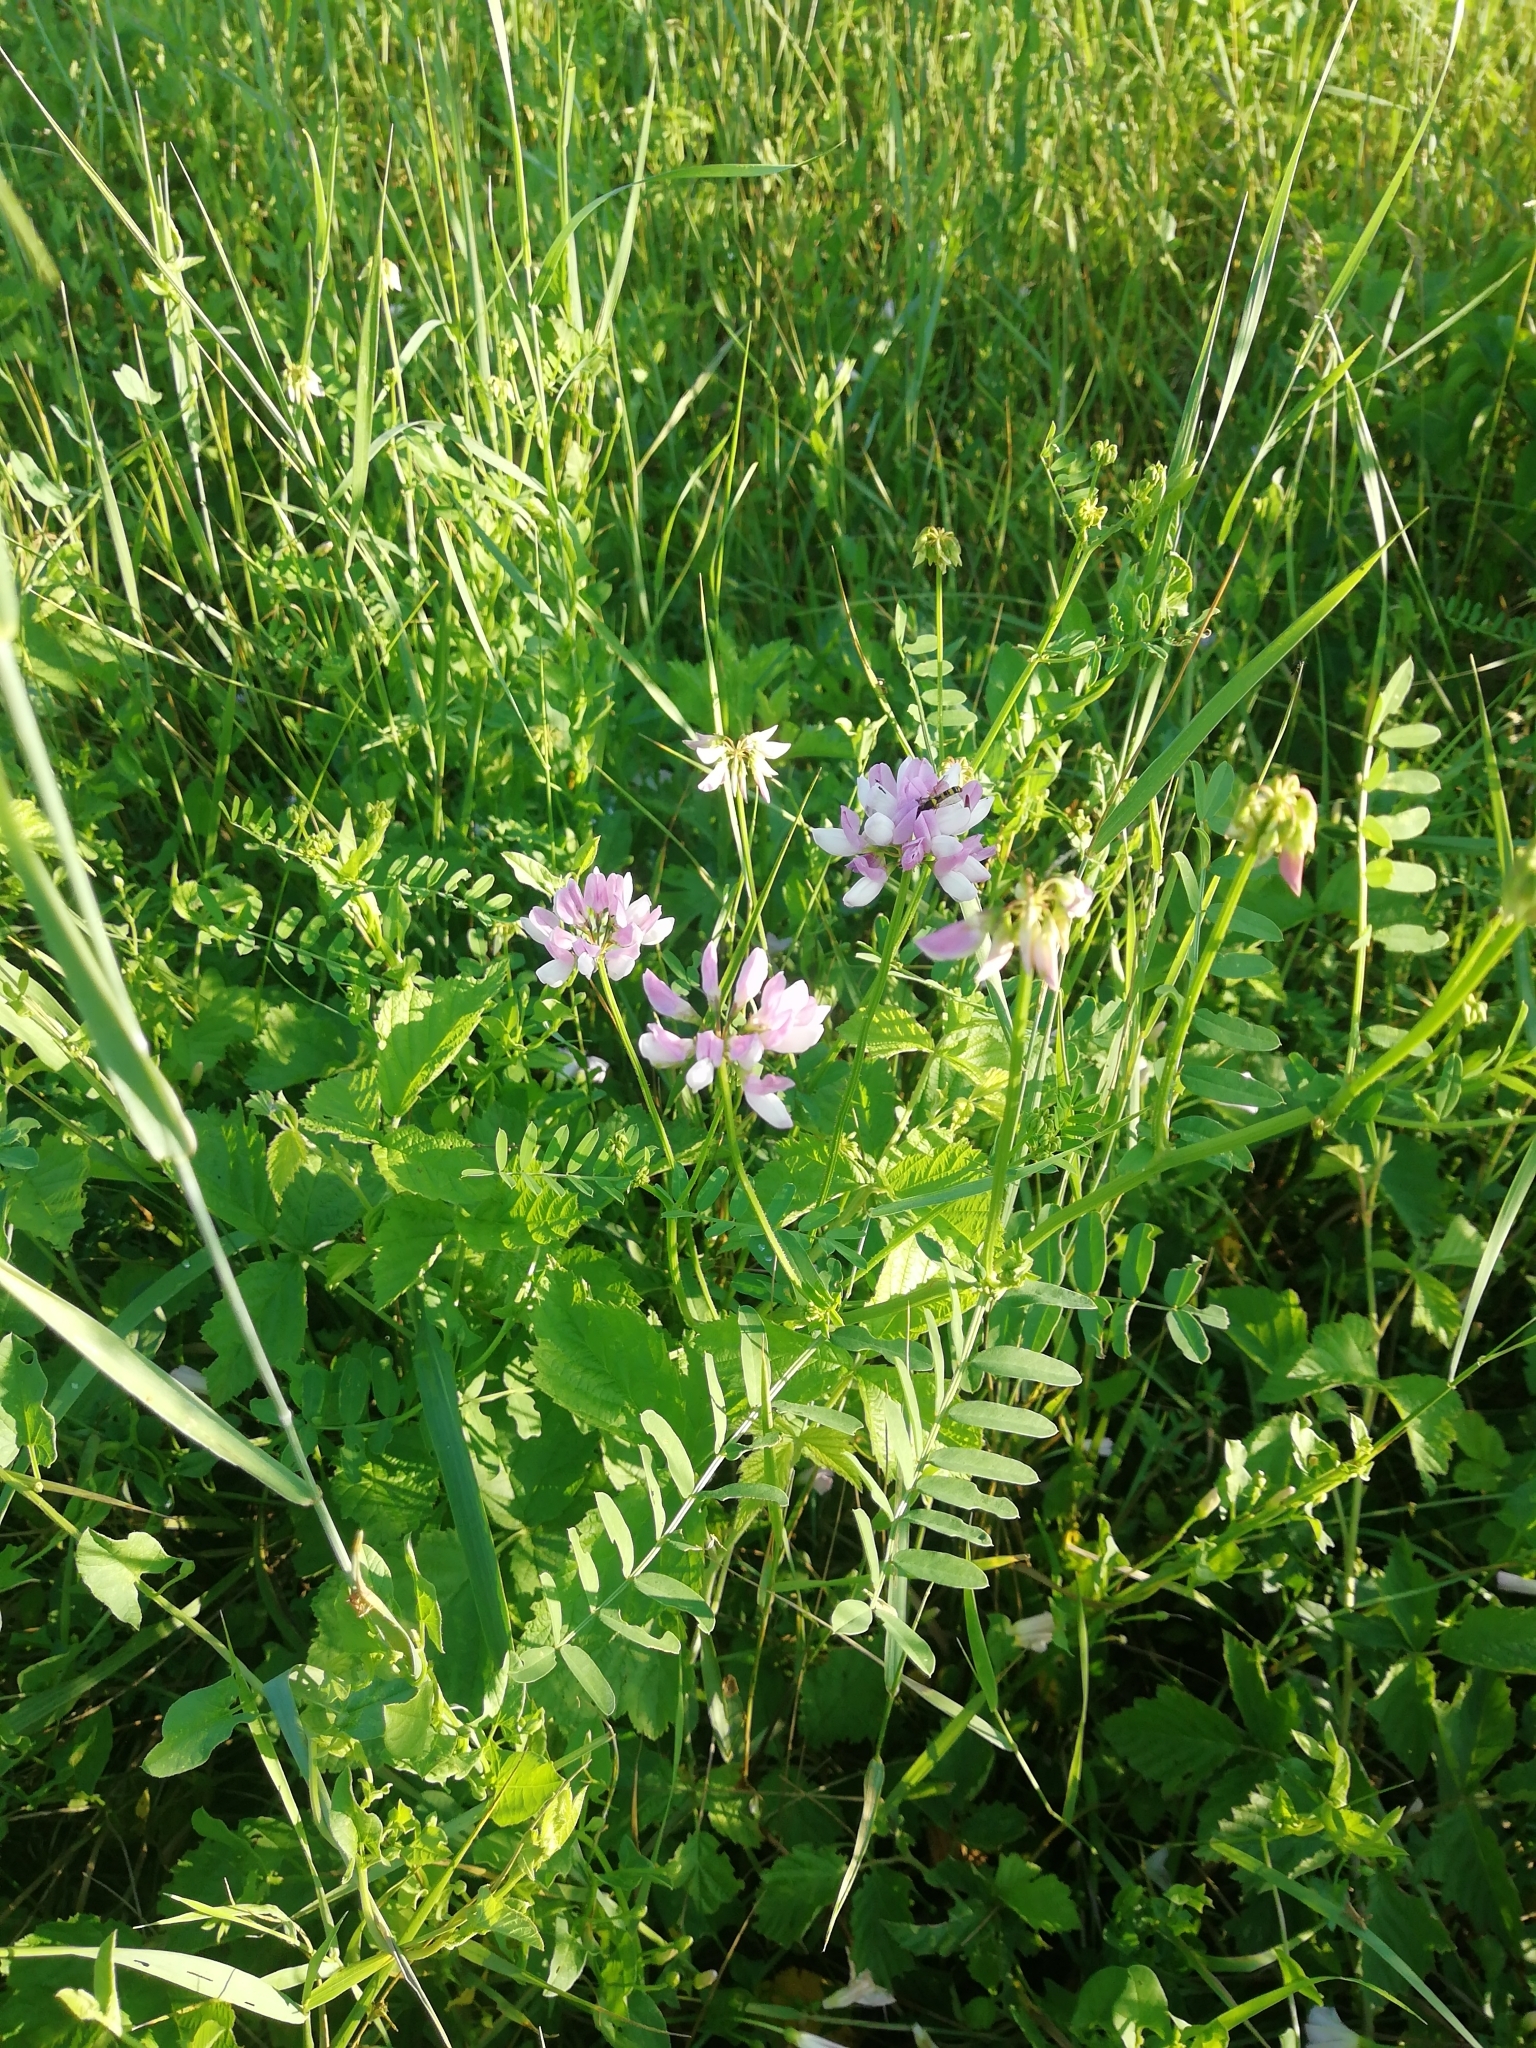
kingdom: Plantae
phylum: Tracheophyta
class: Magnoliopsida
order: Fabales
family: Fabaceae
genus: Coronilla
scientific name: Coronilla varia
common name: Crownvetch
